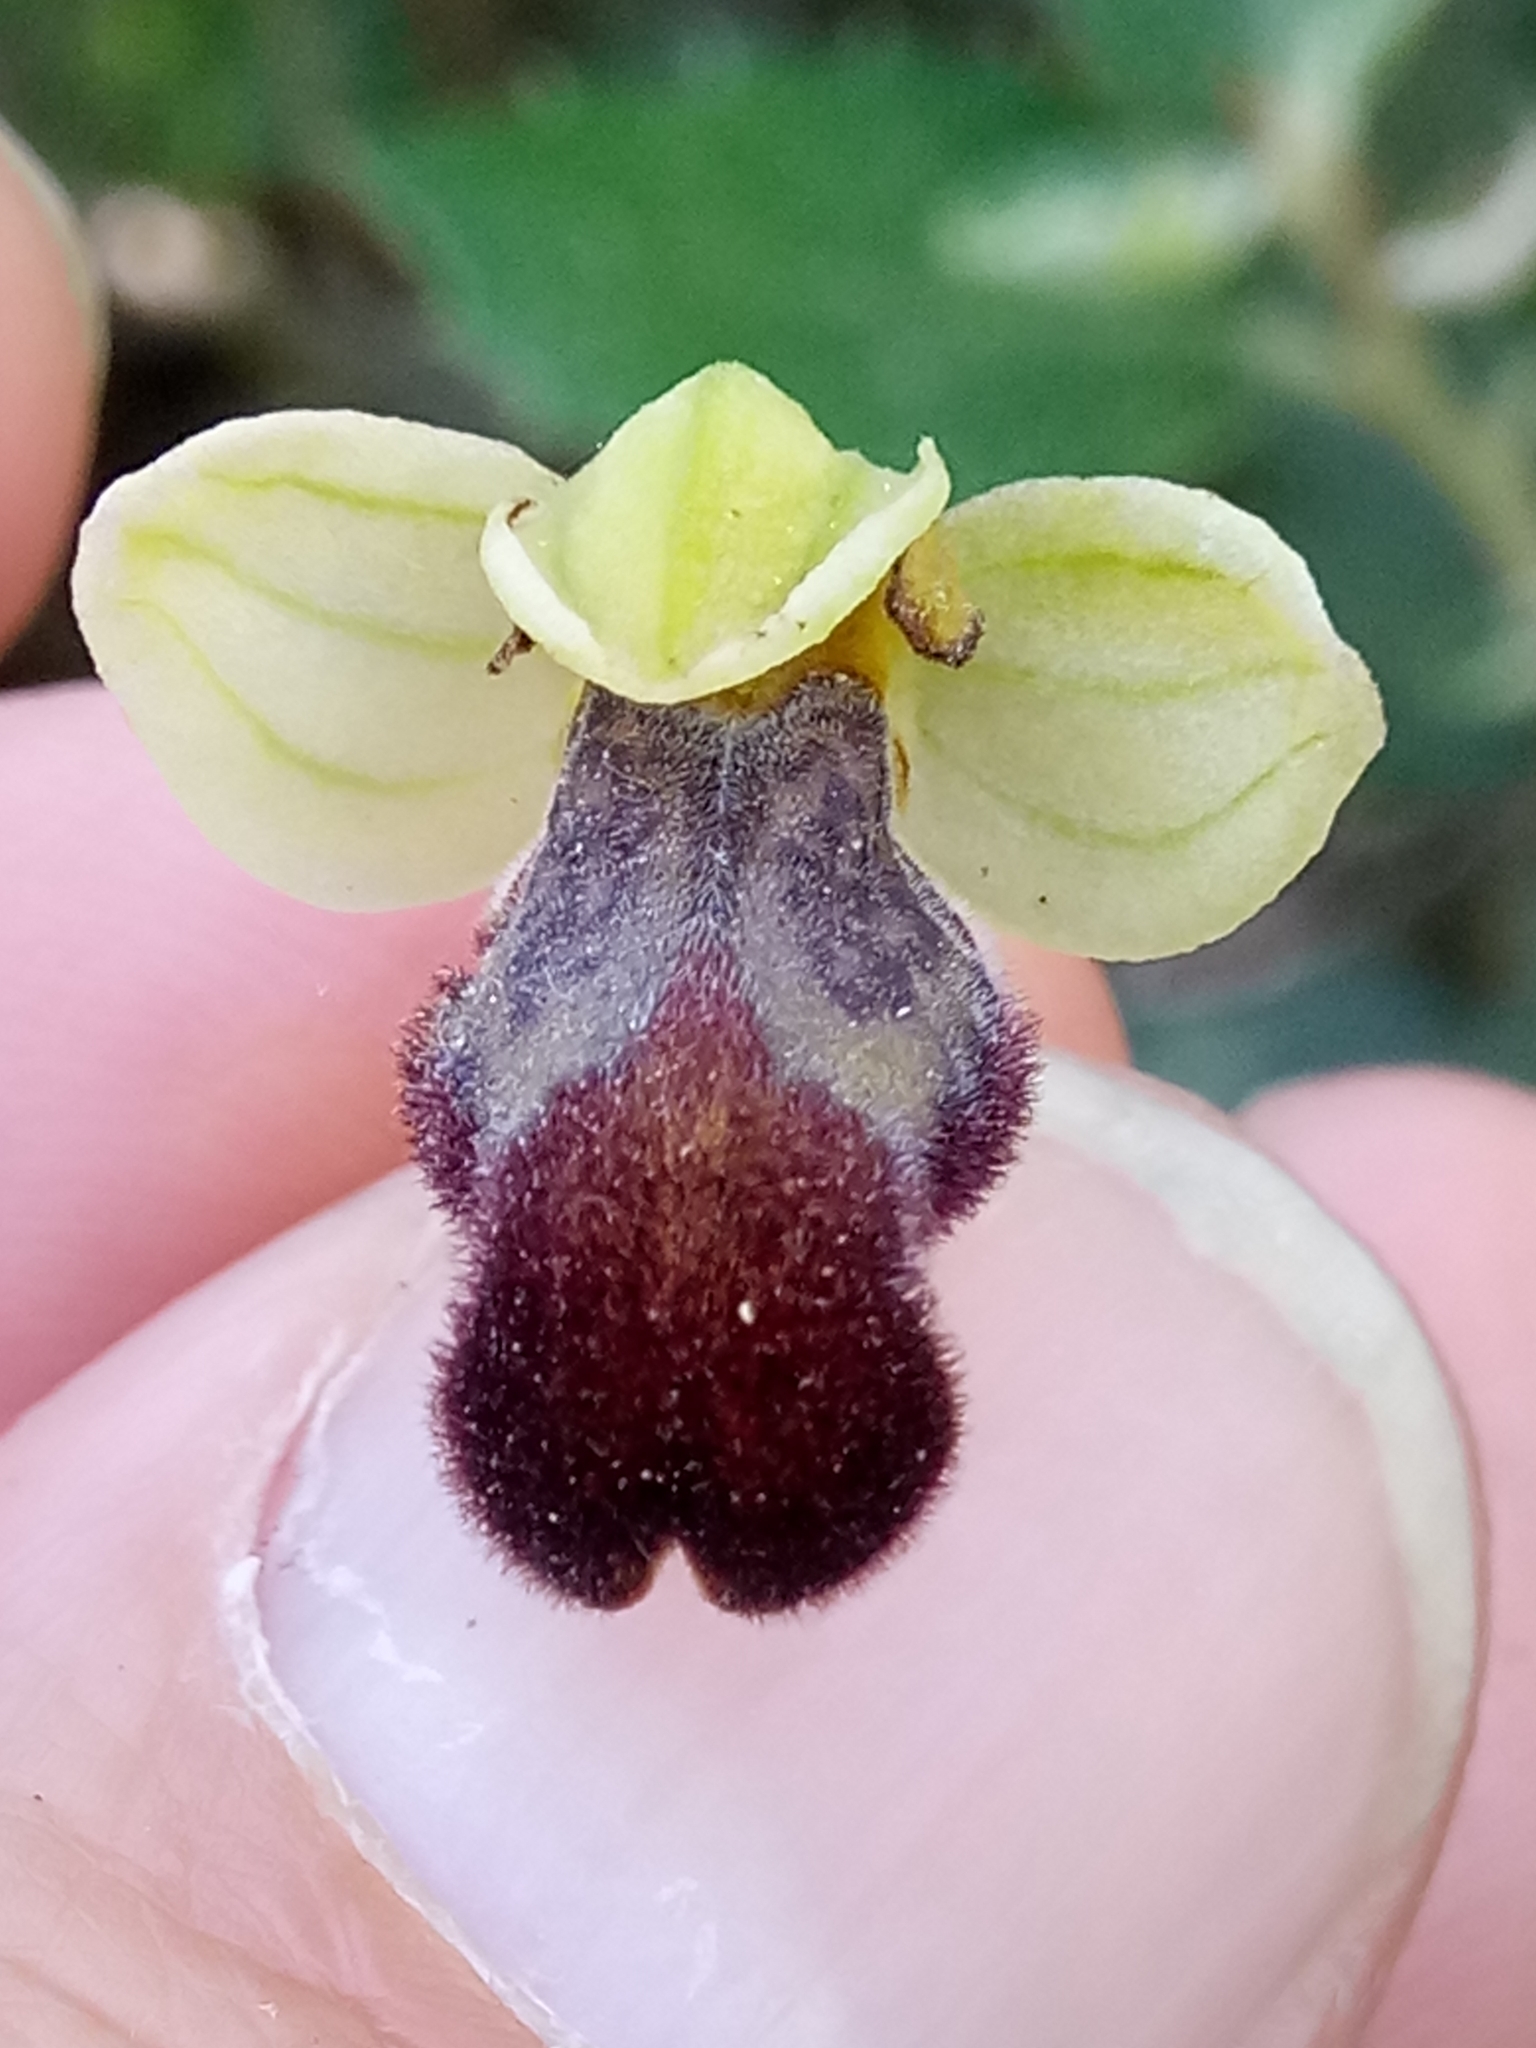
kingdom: Plantae
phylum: Tracheophyta
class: Liliopsida
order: Asparagales
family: Orchidaceae
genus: Ophrys
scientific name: Ophrys fusca
